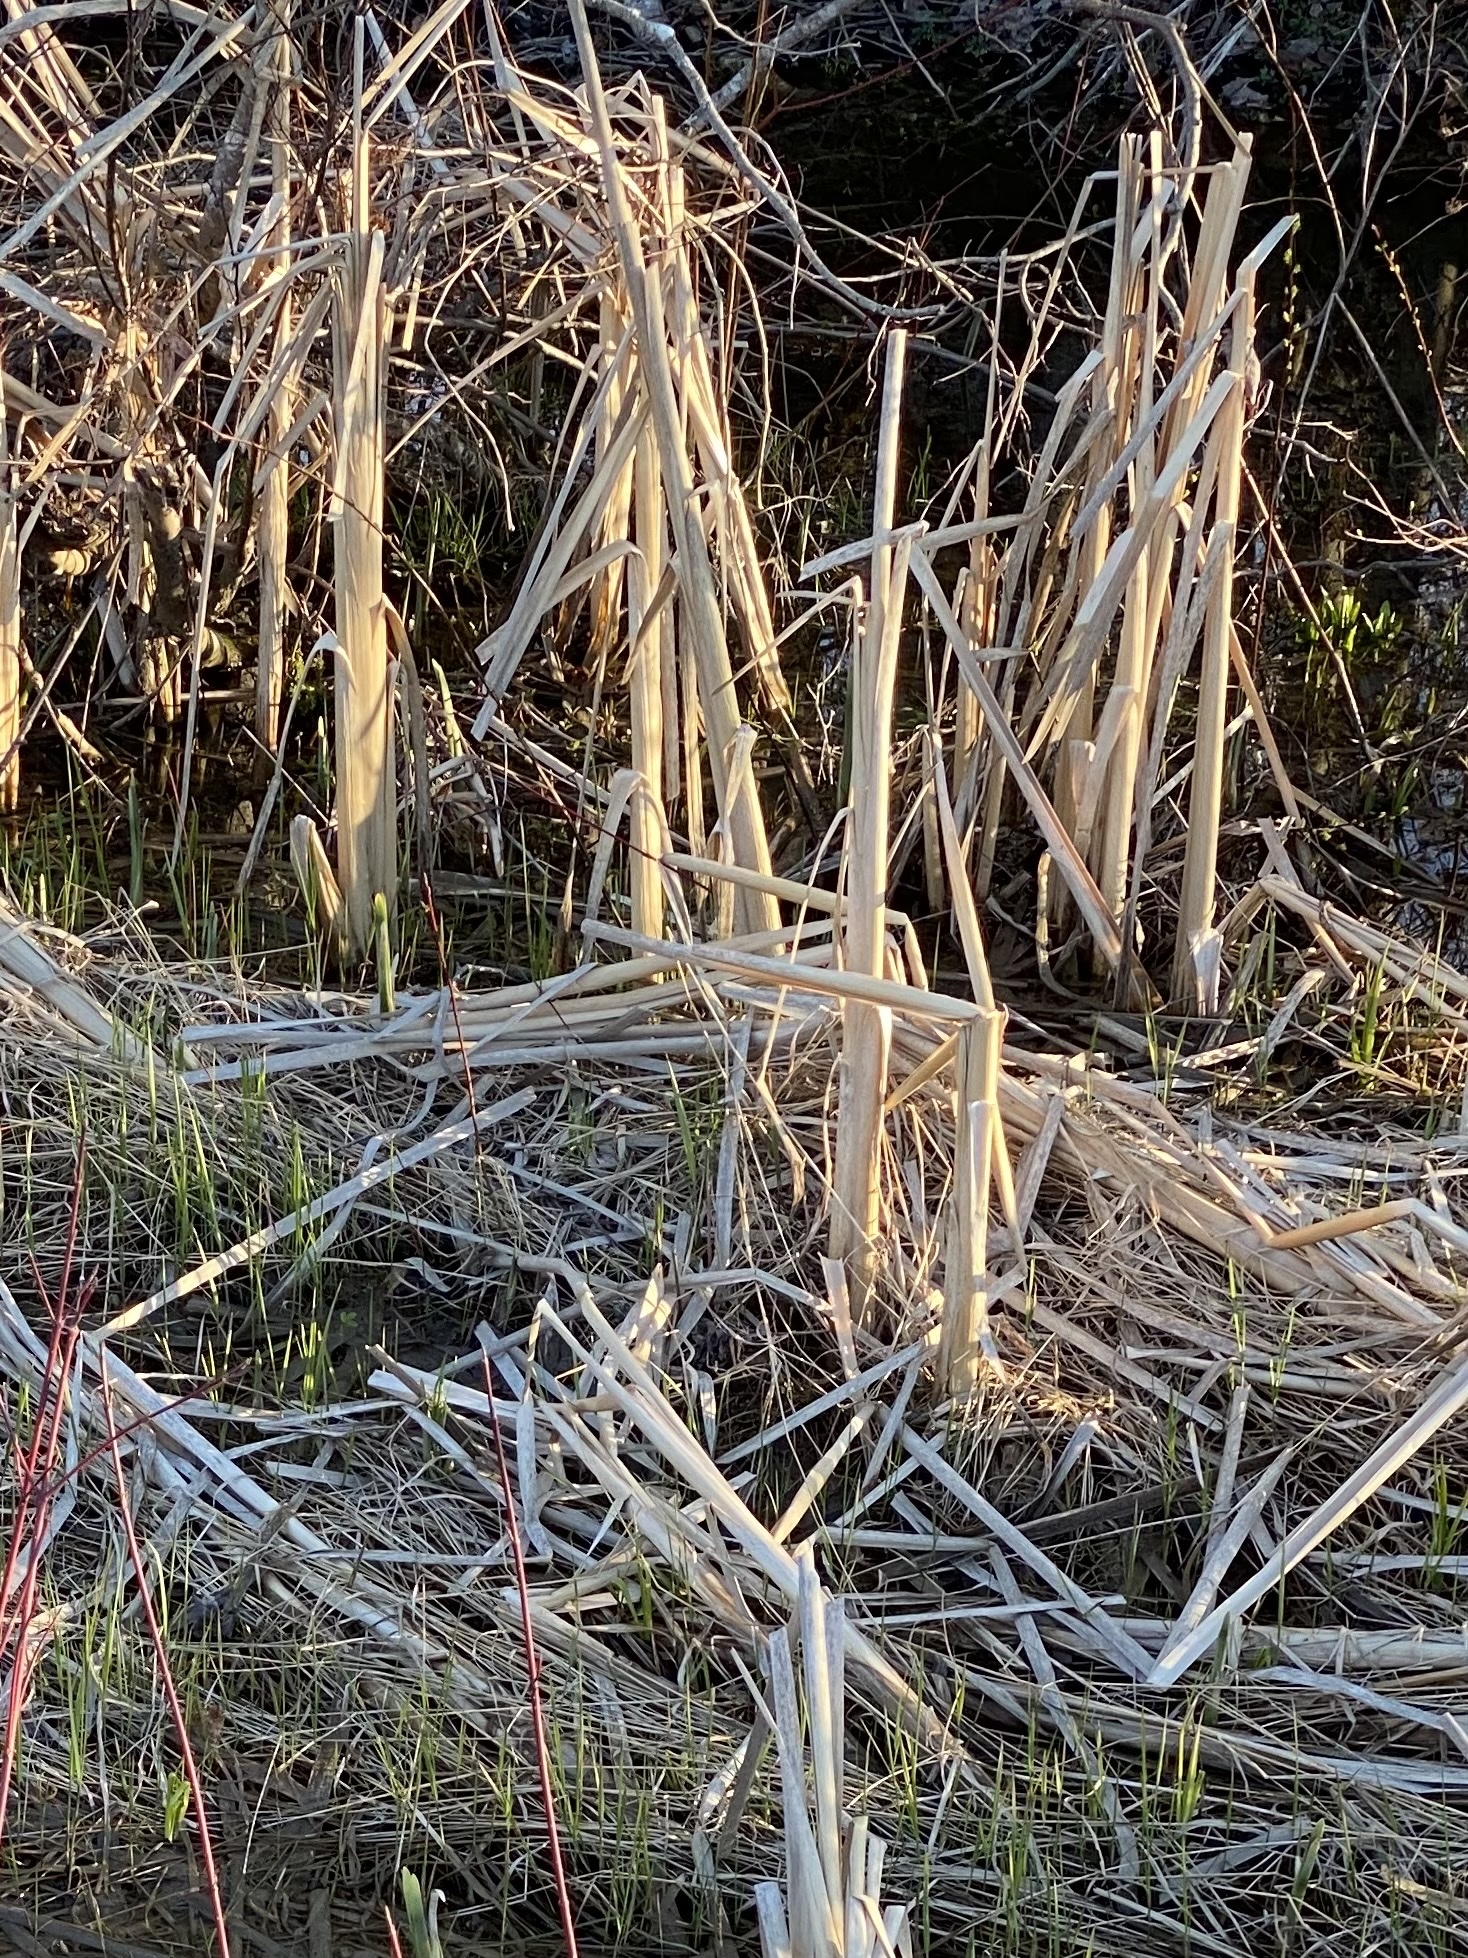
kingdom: Plantae
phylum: Tracheophyta
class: Liliopsida
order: Poales
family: Typhaceae
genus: Typha
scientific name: Typha latifolia
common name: Broadleaf cattail
